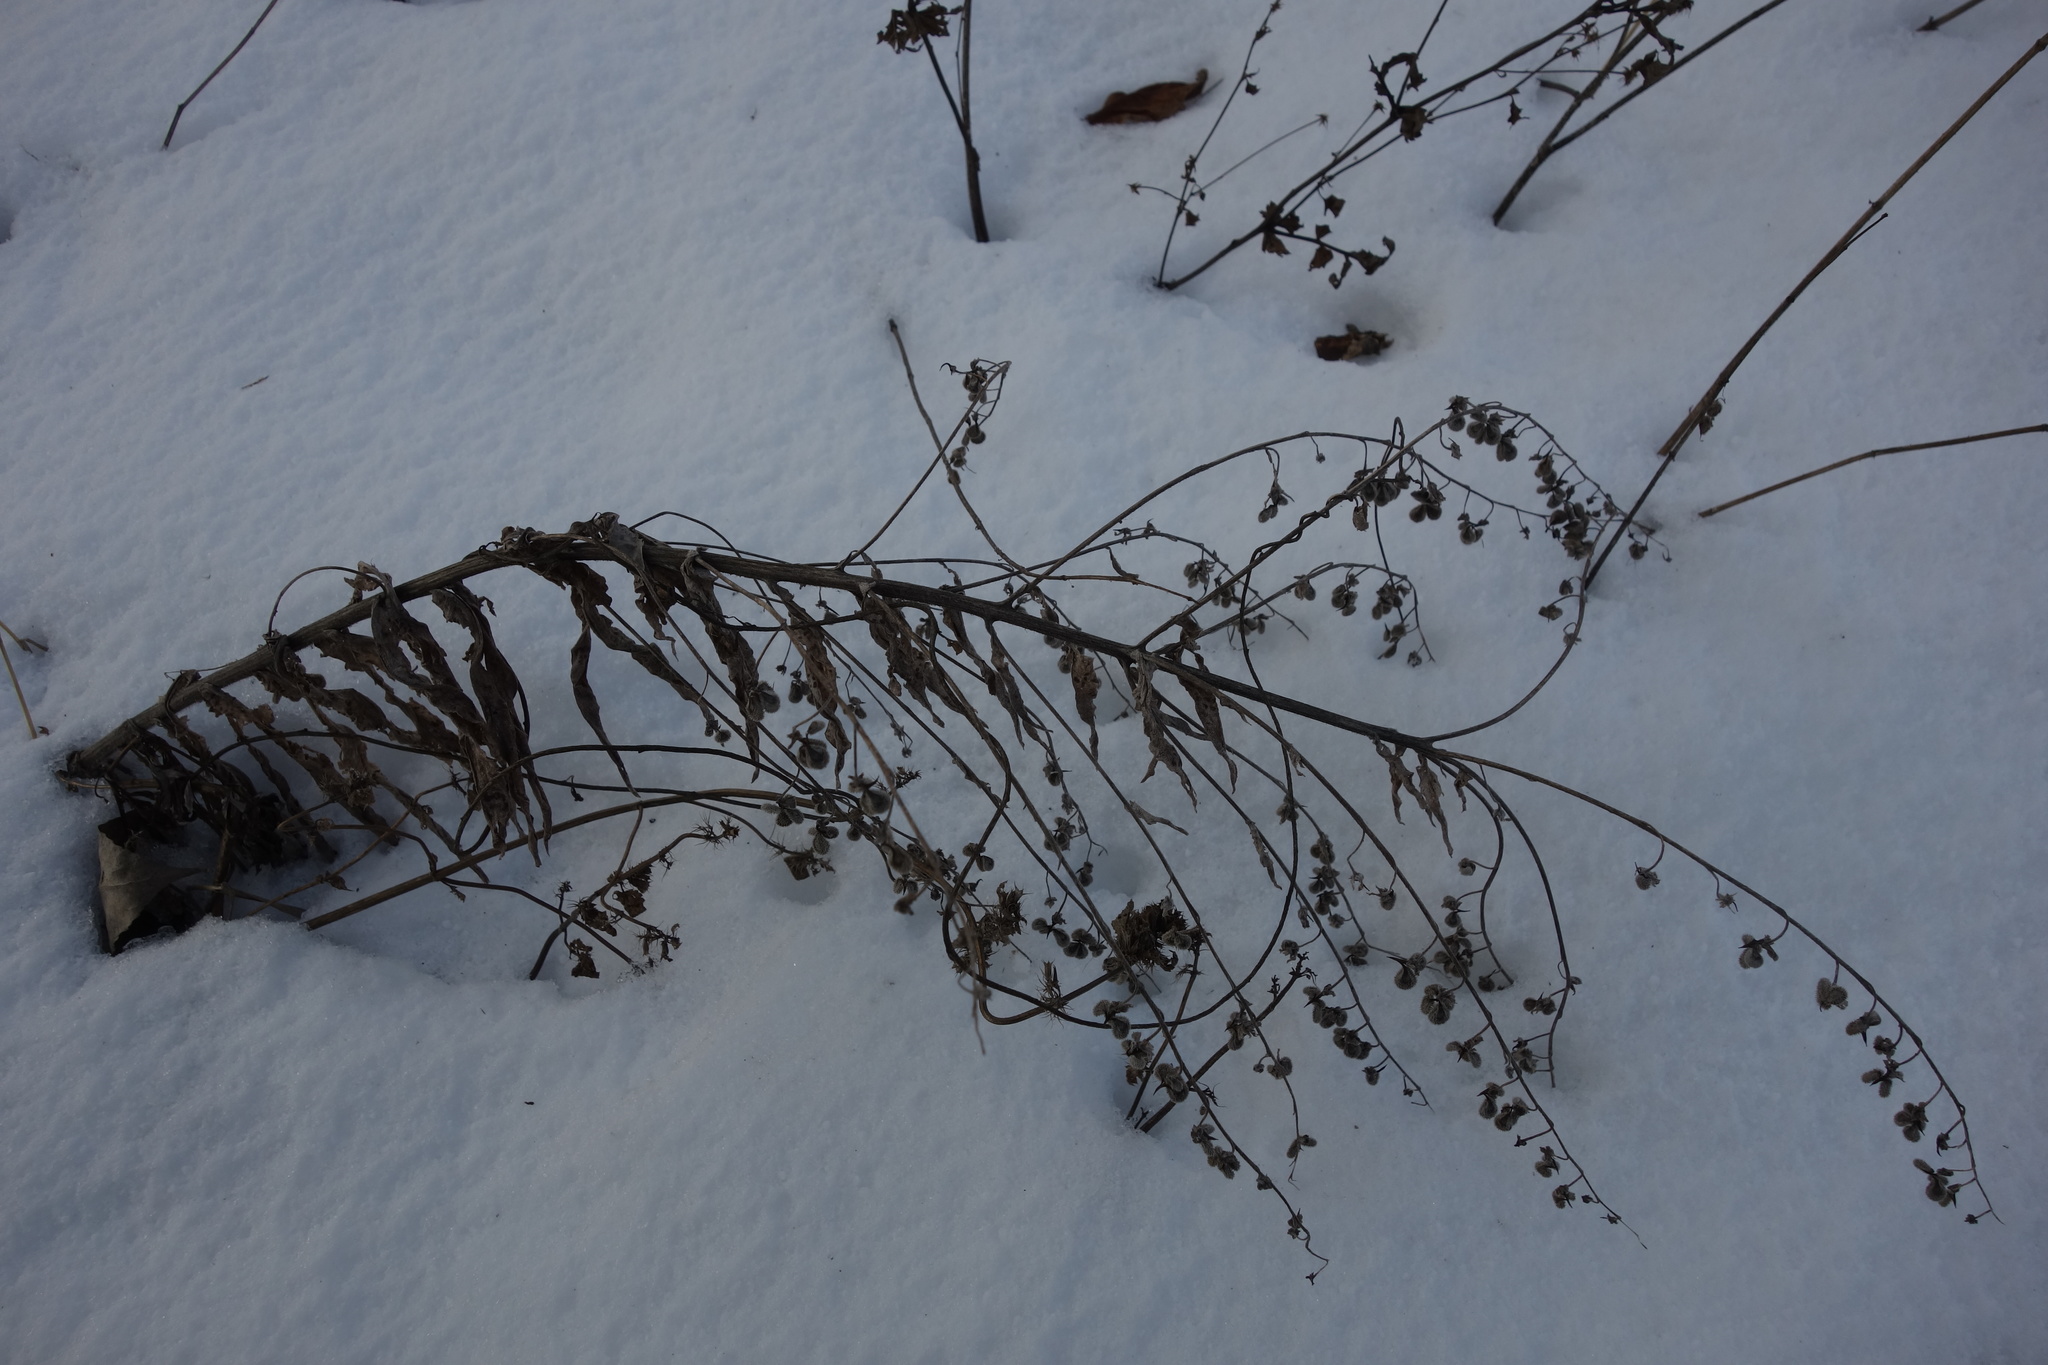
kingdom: Plantae
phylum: Tracheophyta
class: Magnoliopsida
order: Boraginales
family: Boraginaceae
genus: Cynoglossum
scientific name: Cynoglossum officinale
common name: Hound's-tongue
